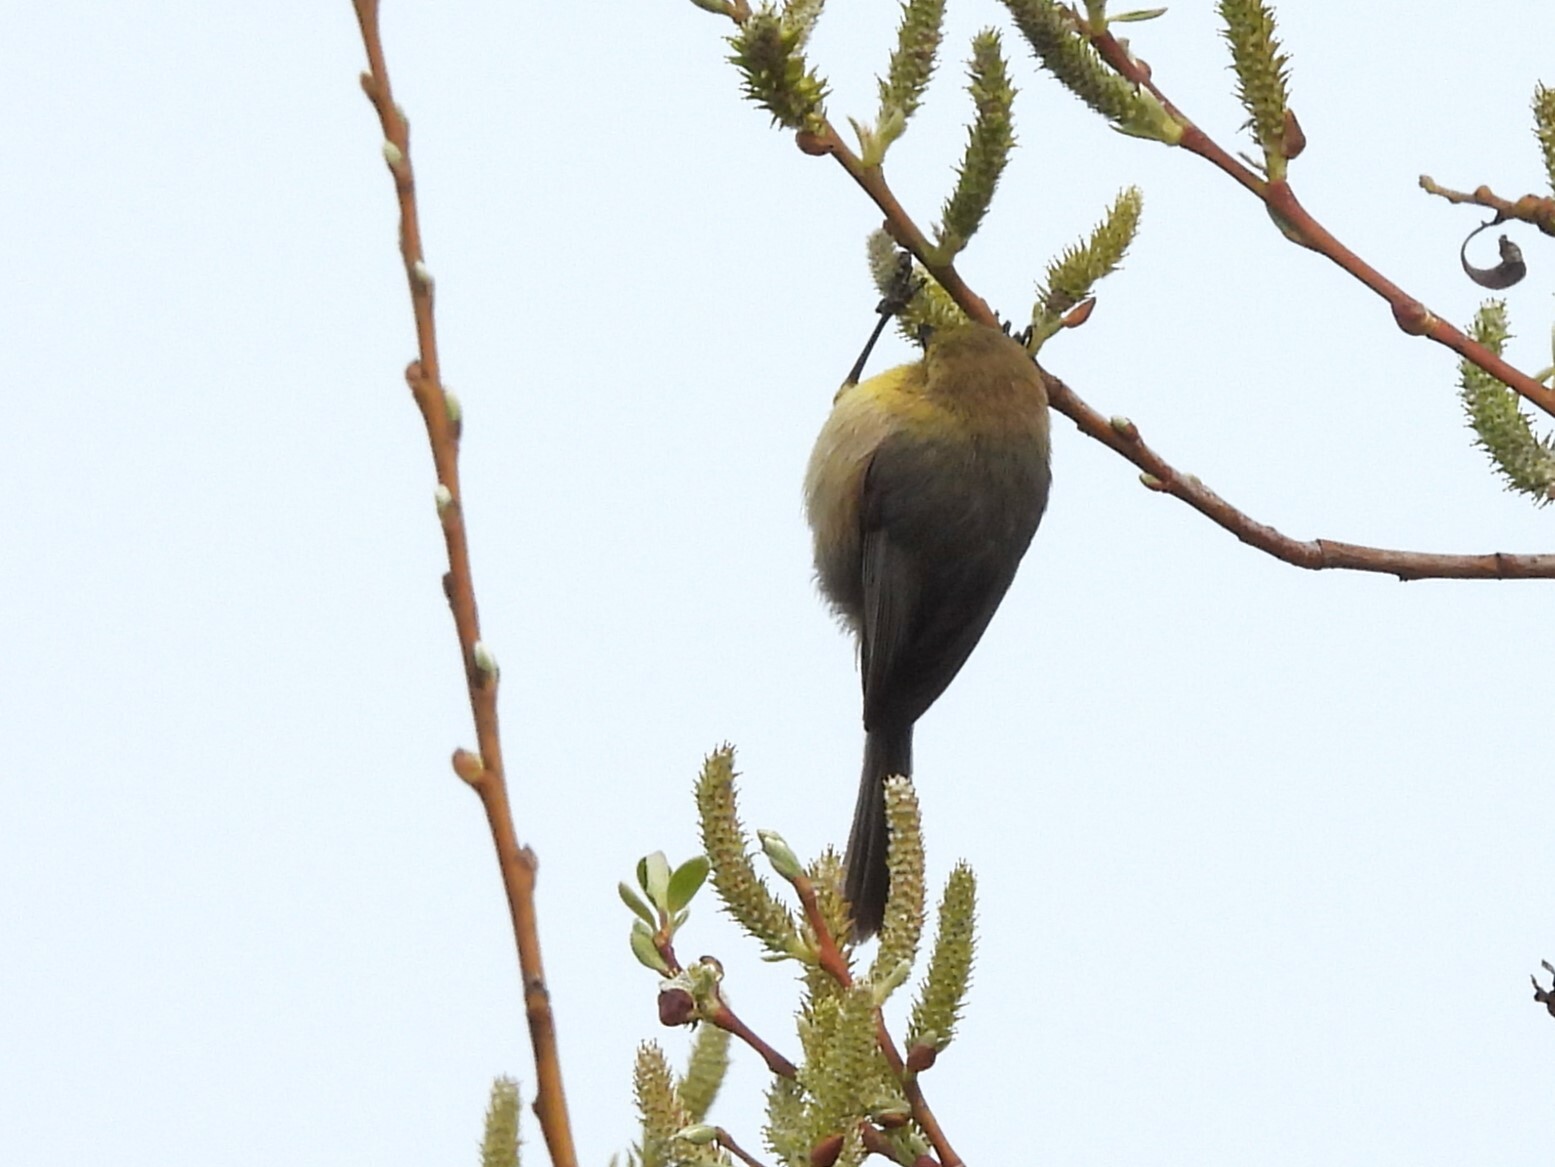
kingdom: Animalia
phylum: Chordata
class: Aves
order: Passeriformes
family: Aegithalidae
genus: Psaltriparus
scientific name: Psaltriparus minimus
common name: American bushtit
